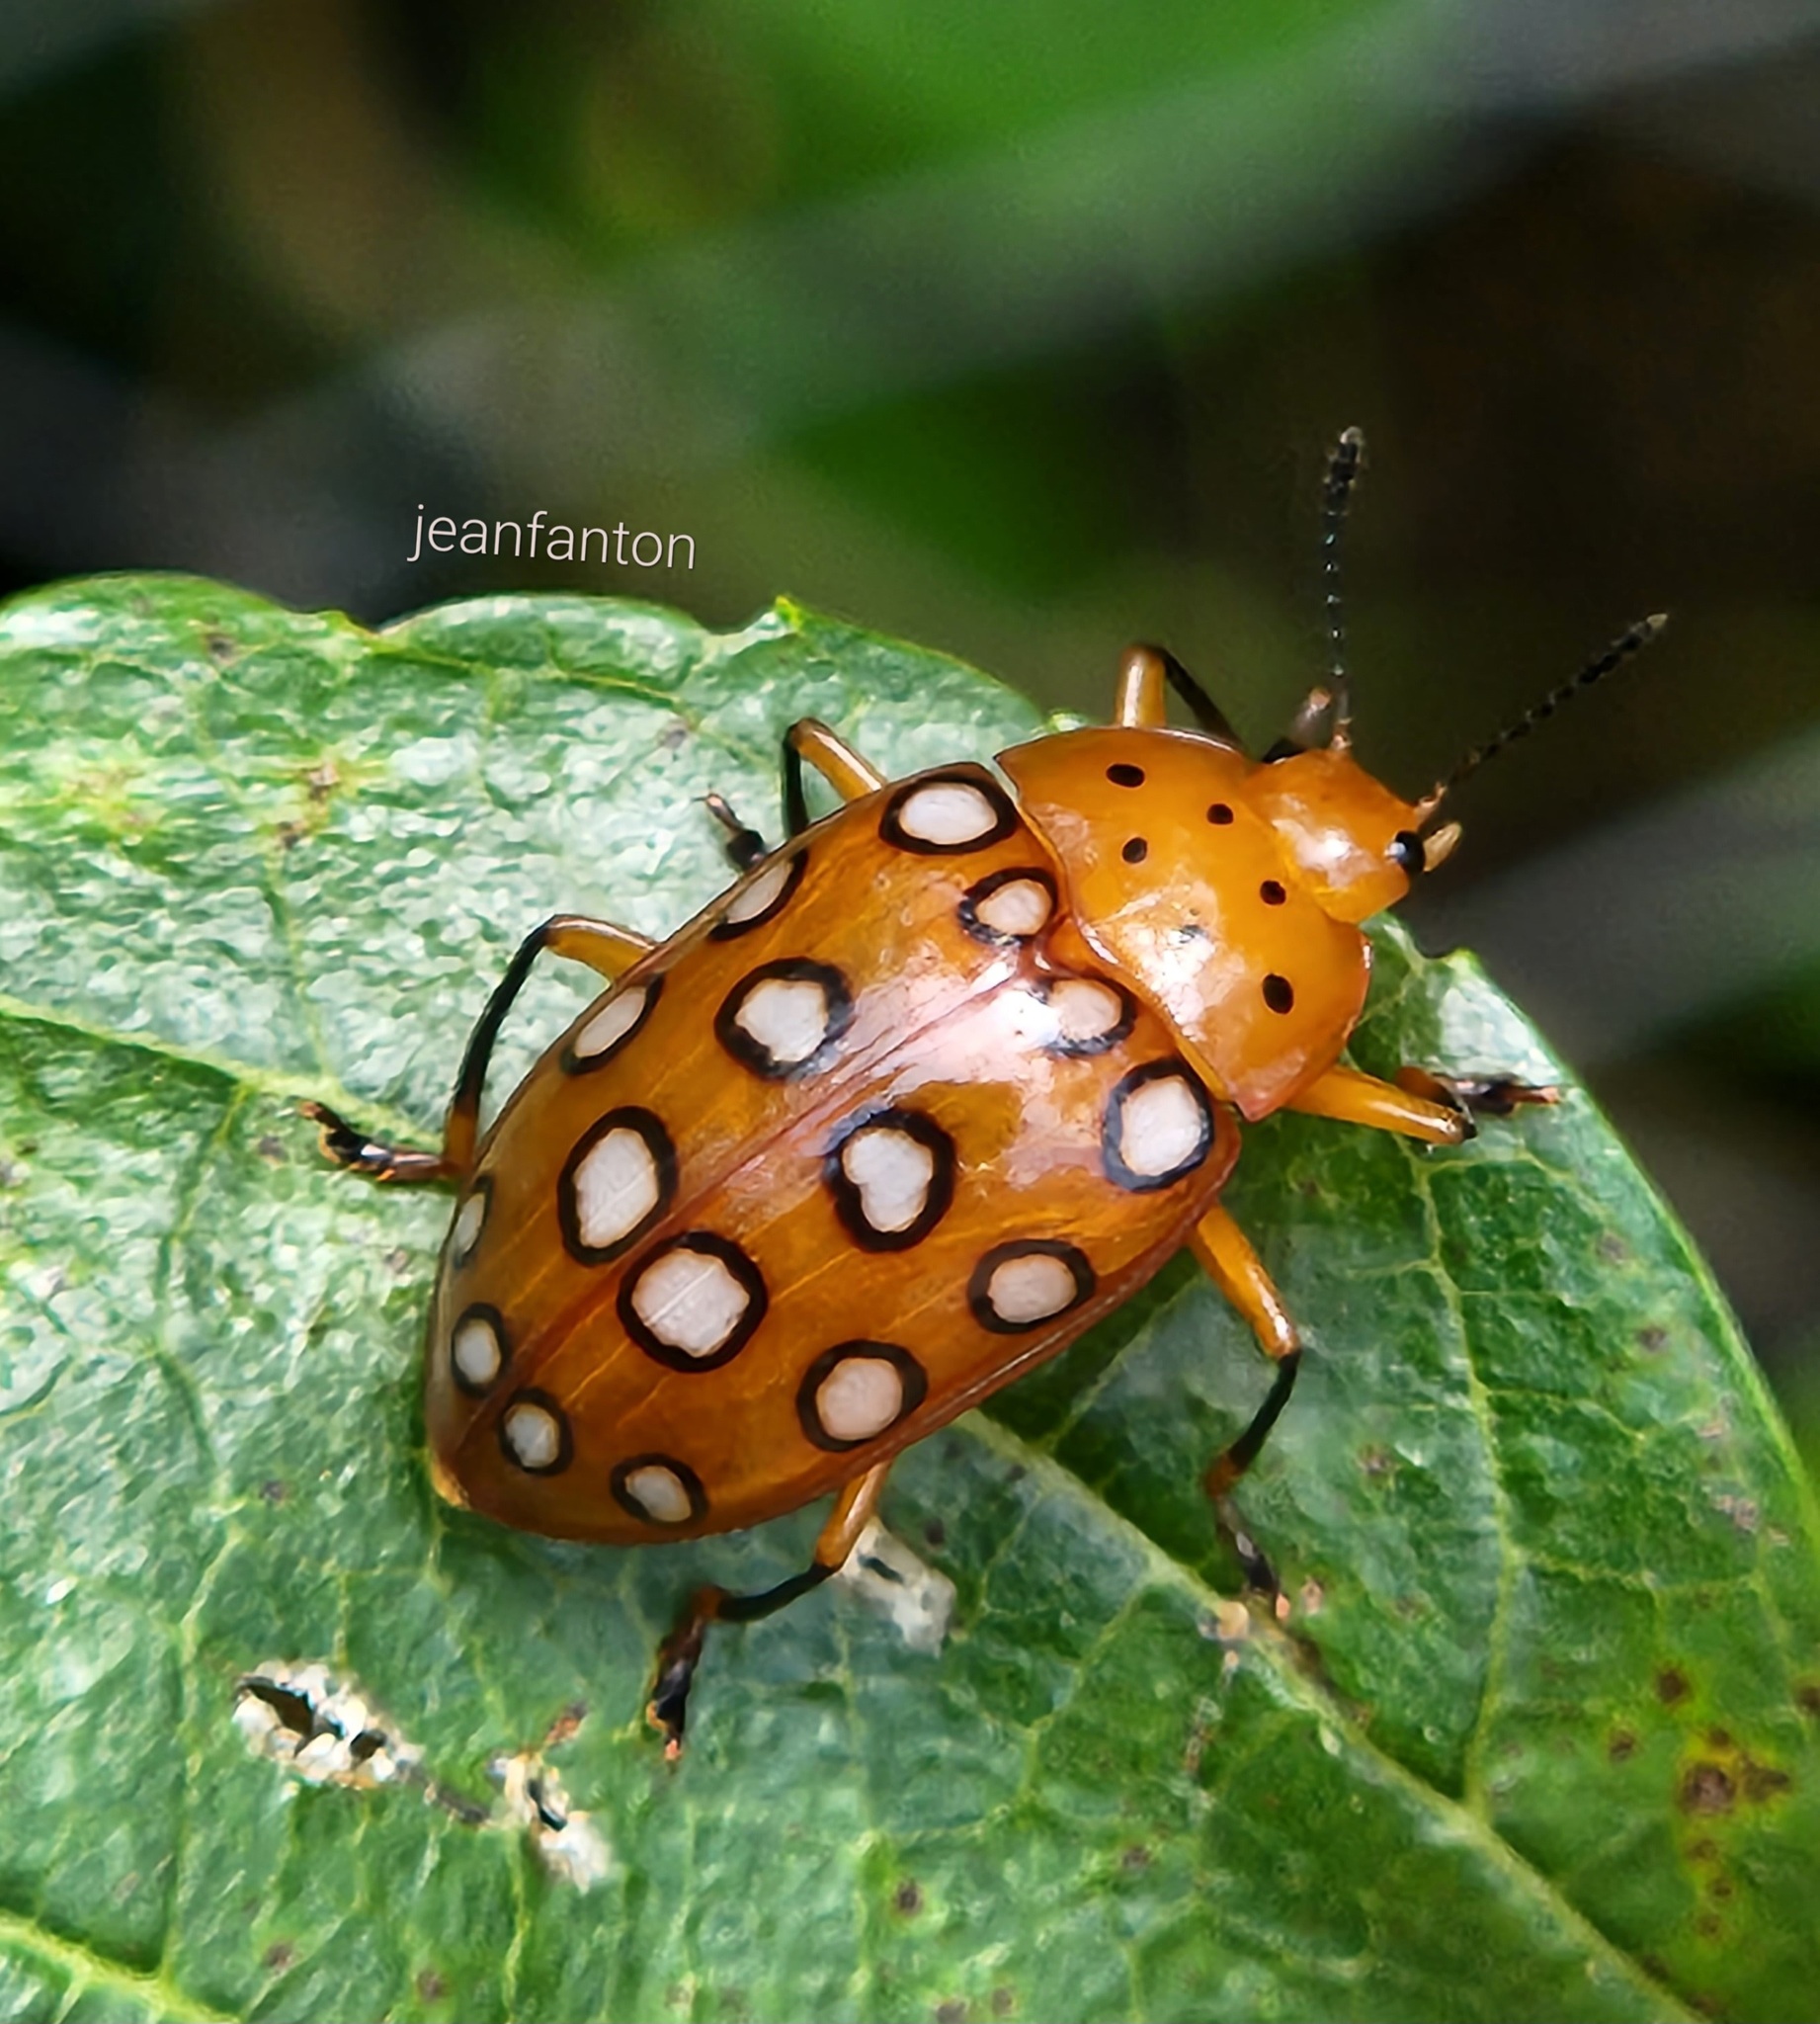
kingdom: Animalia
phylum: Arthropoda
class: Insecta
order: Coleoptera
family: Erotylidae
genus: Iphiclus
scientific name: Iphiclus
